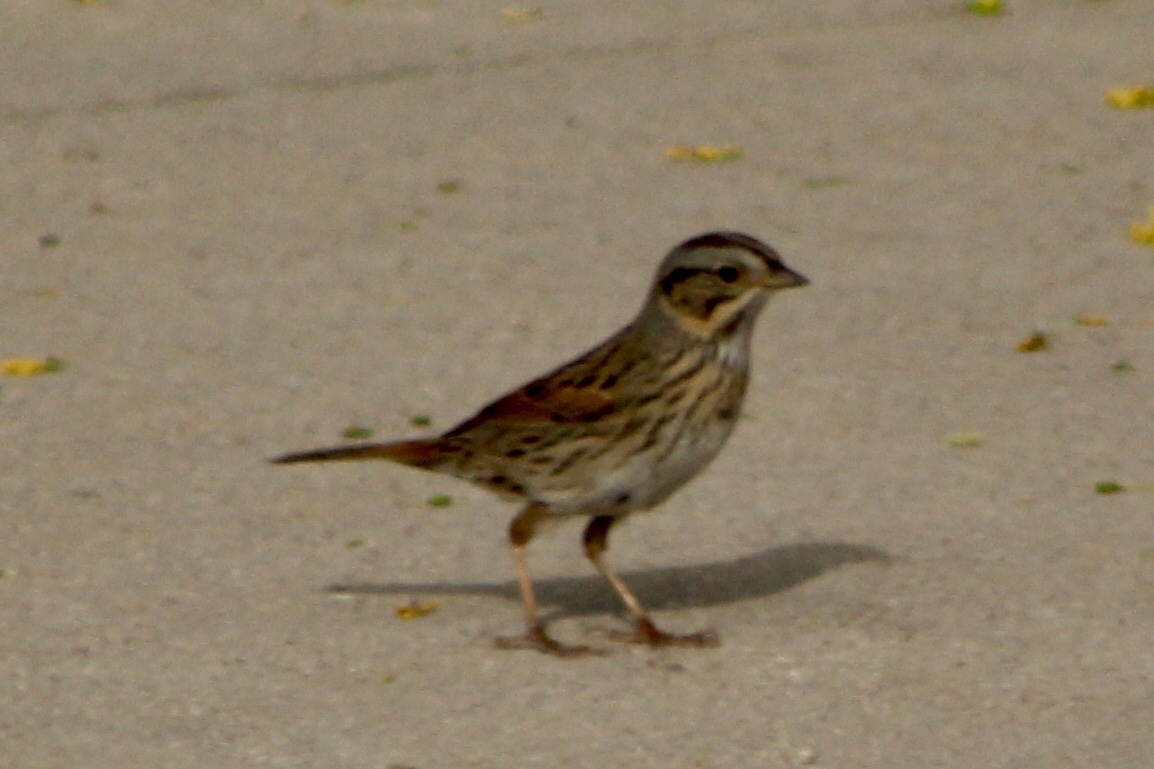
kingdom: Animalia
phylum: Chordata
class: Aves
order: Passeriformes
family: Passerellidae
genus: Melospiza
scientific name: Melospiza lincolnii
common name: Lincoln's sparrow
